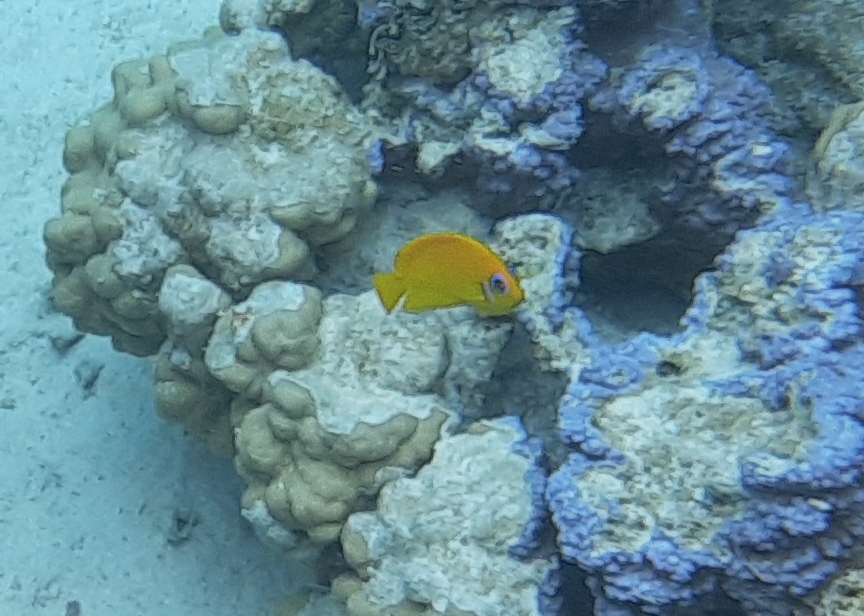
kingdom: Animalia
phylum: Chordata
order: Perciformes
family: Pomacanthidae
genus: Centropyge
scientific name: Centropyge flavissima
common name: Lemonpeel angelfish
